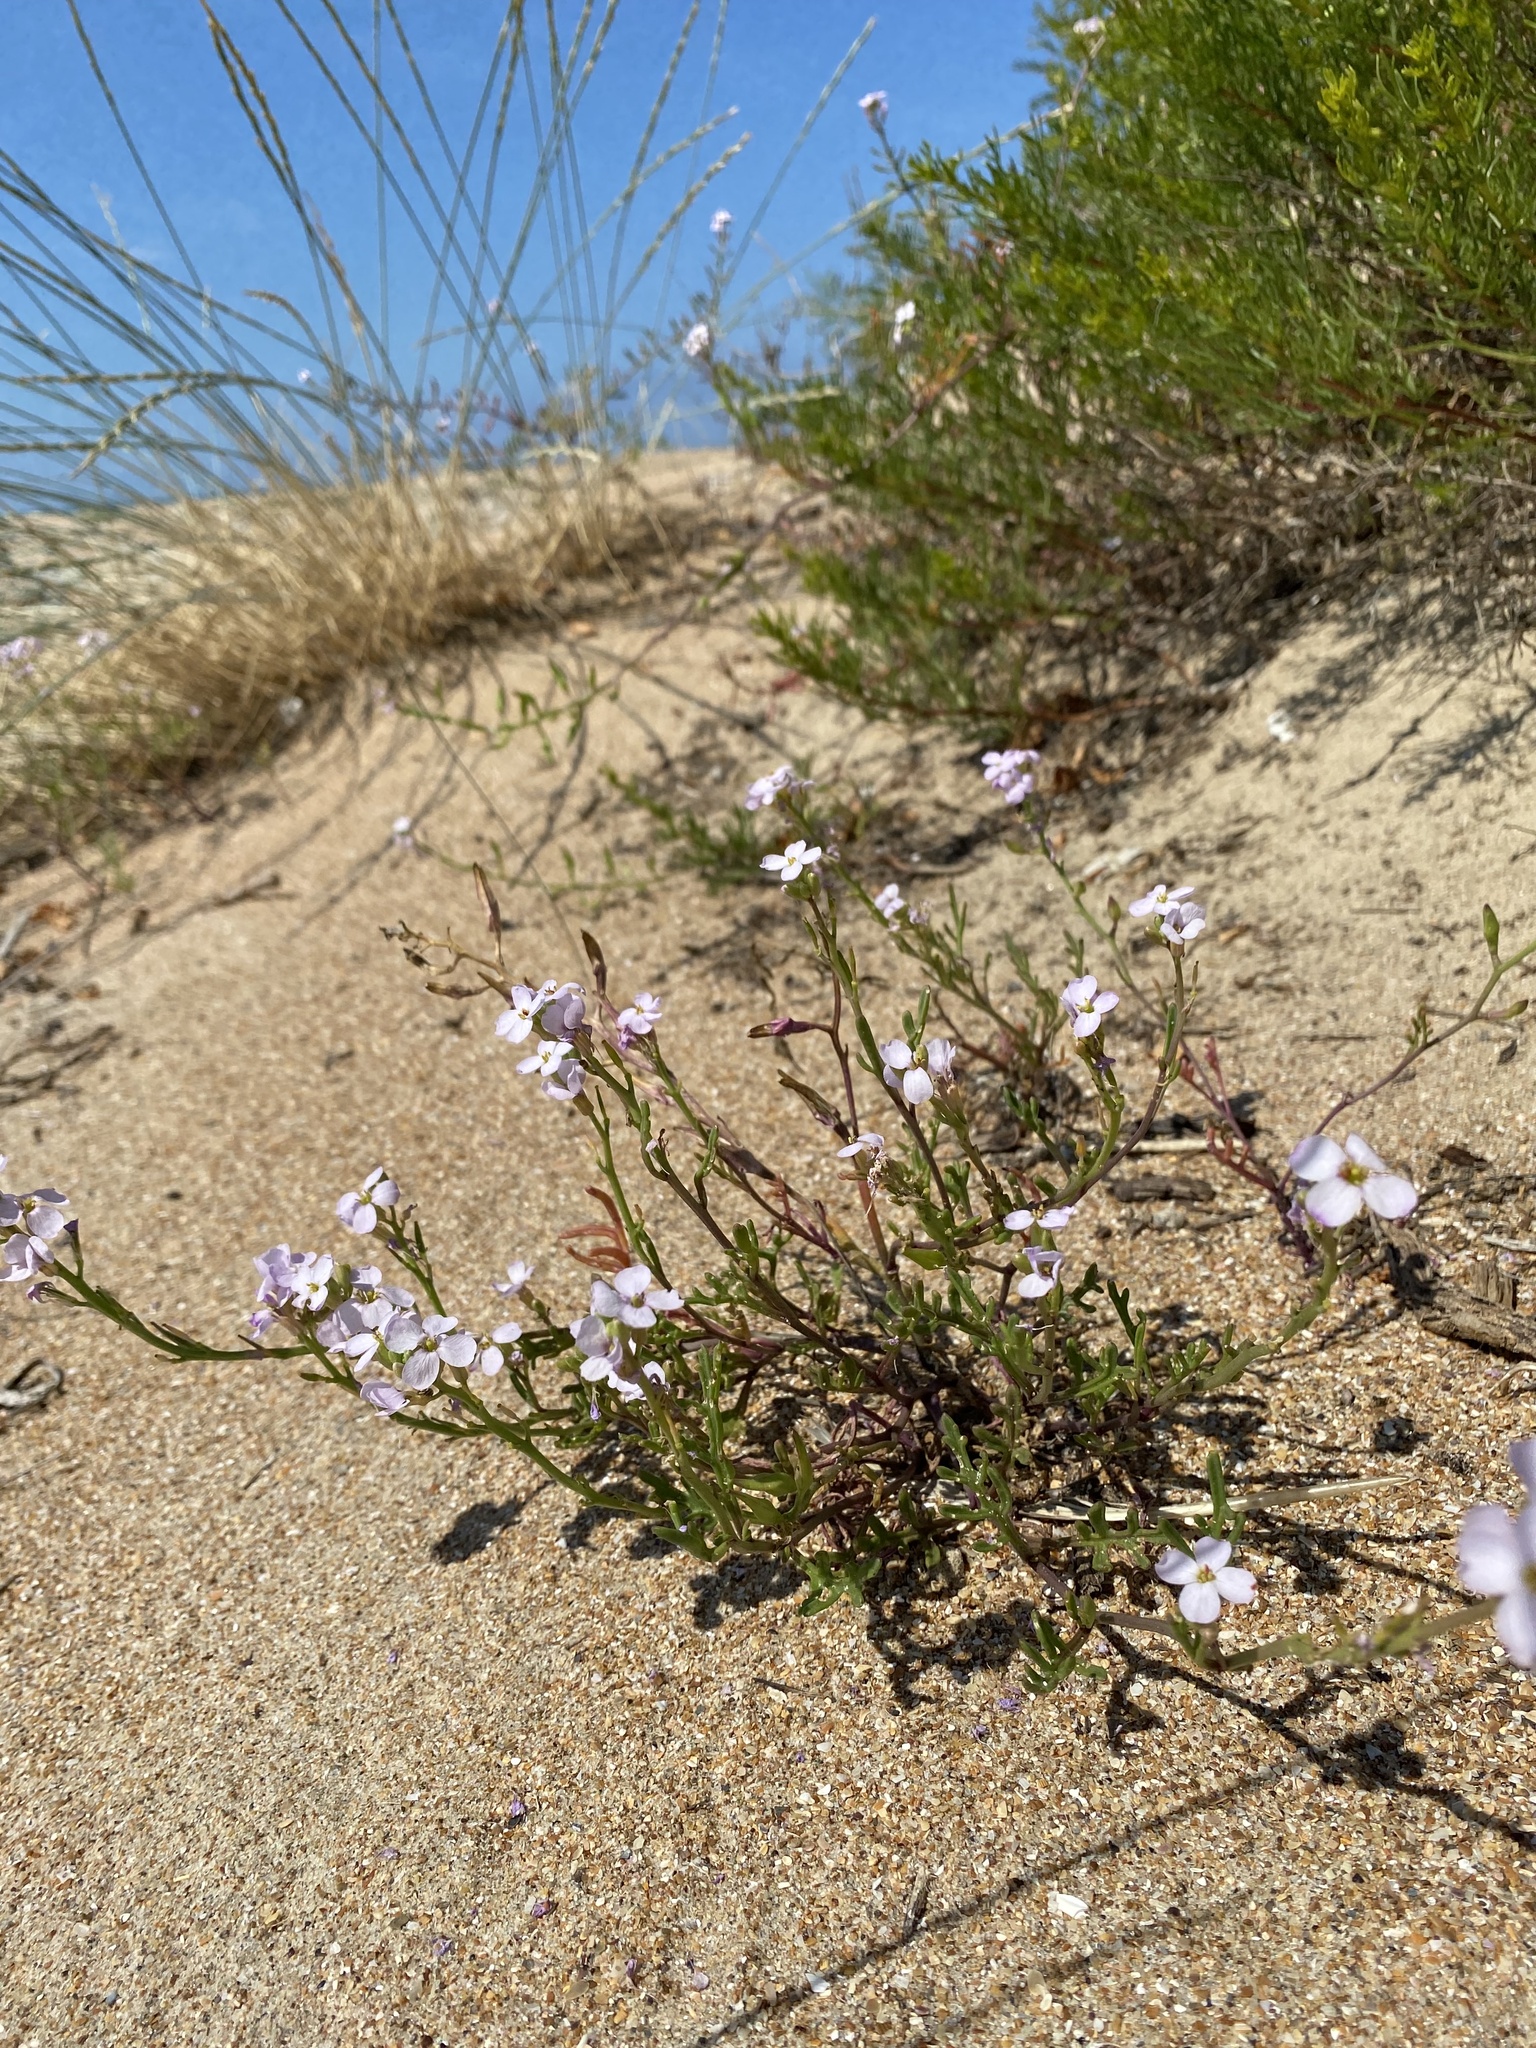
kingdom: Plantae
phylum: Tracheophyta
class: Magnoliopsida
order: Brassicales
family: Brassicaceae
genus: Cakile
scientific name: Cakile maritima
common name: Sea rocket
